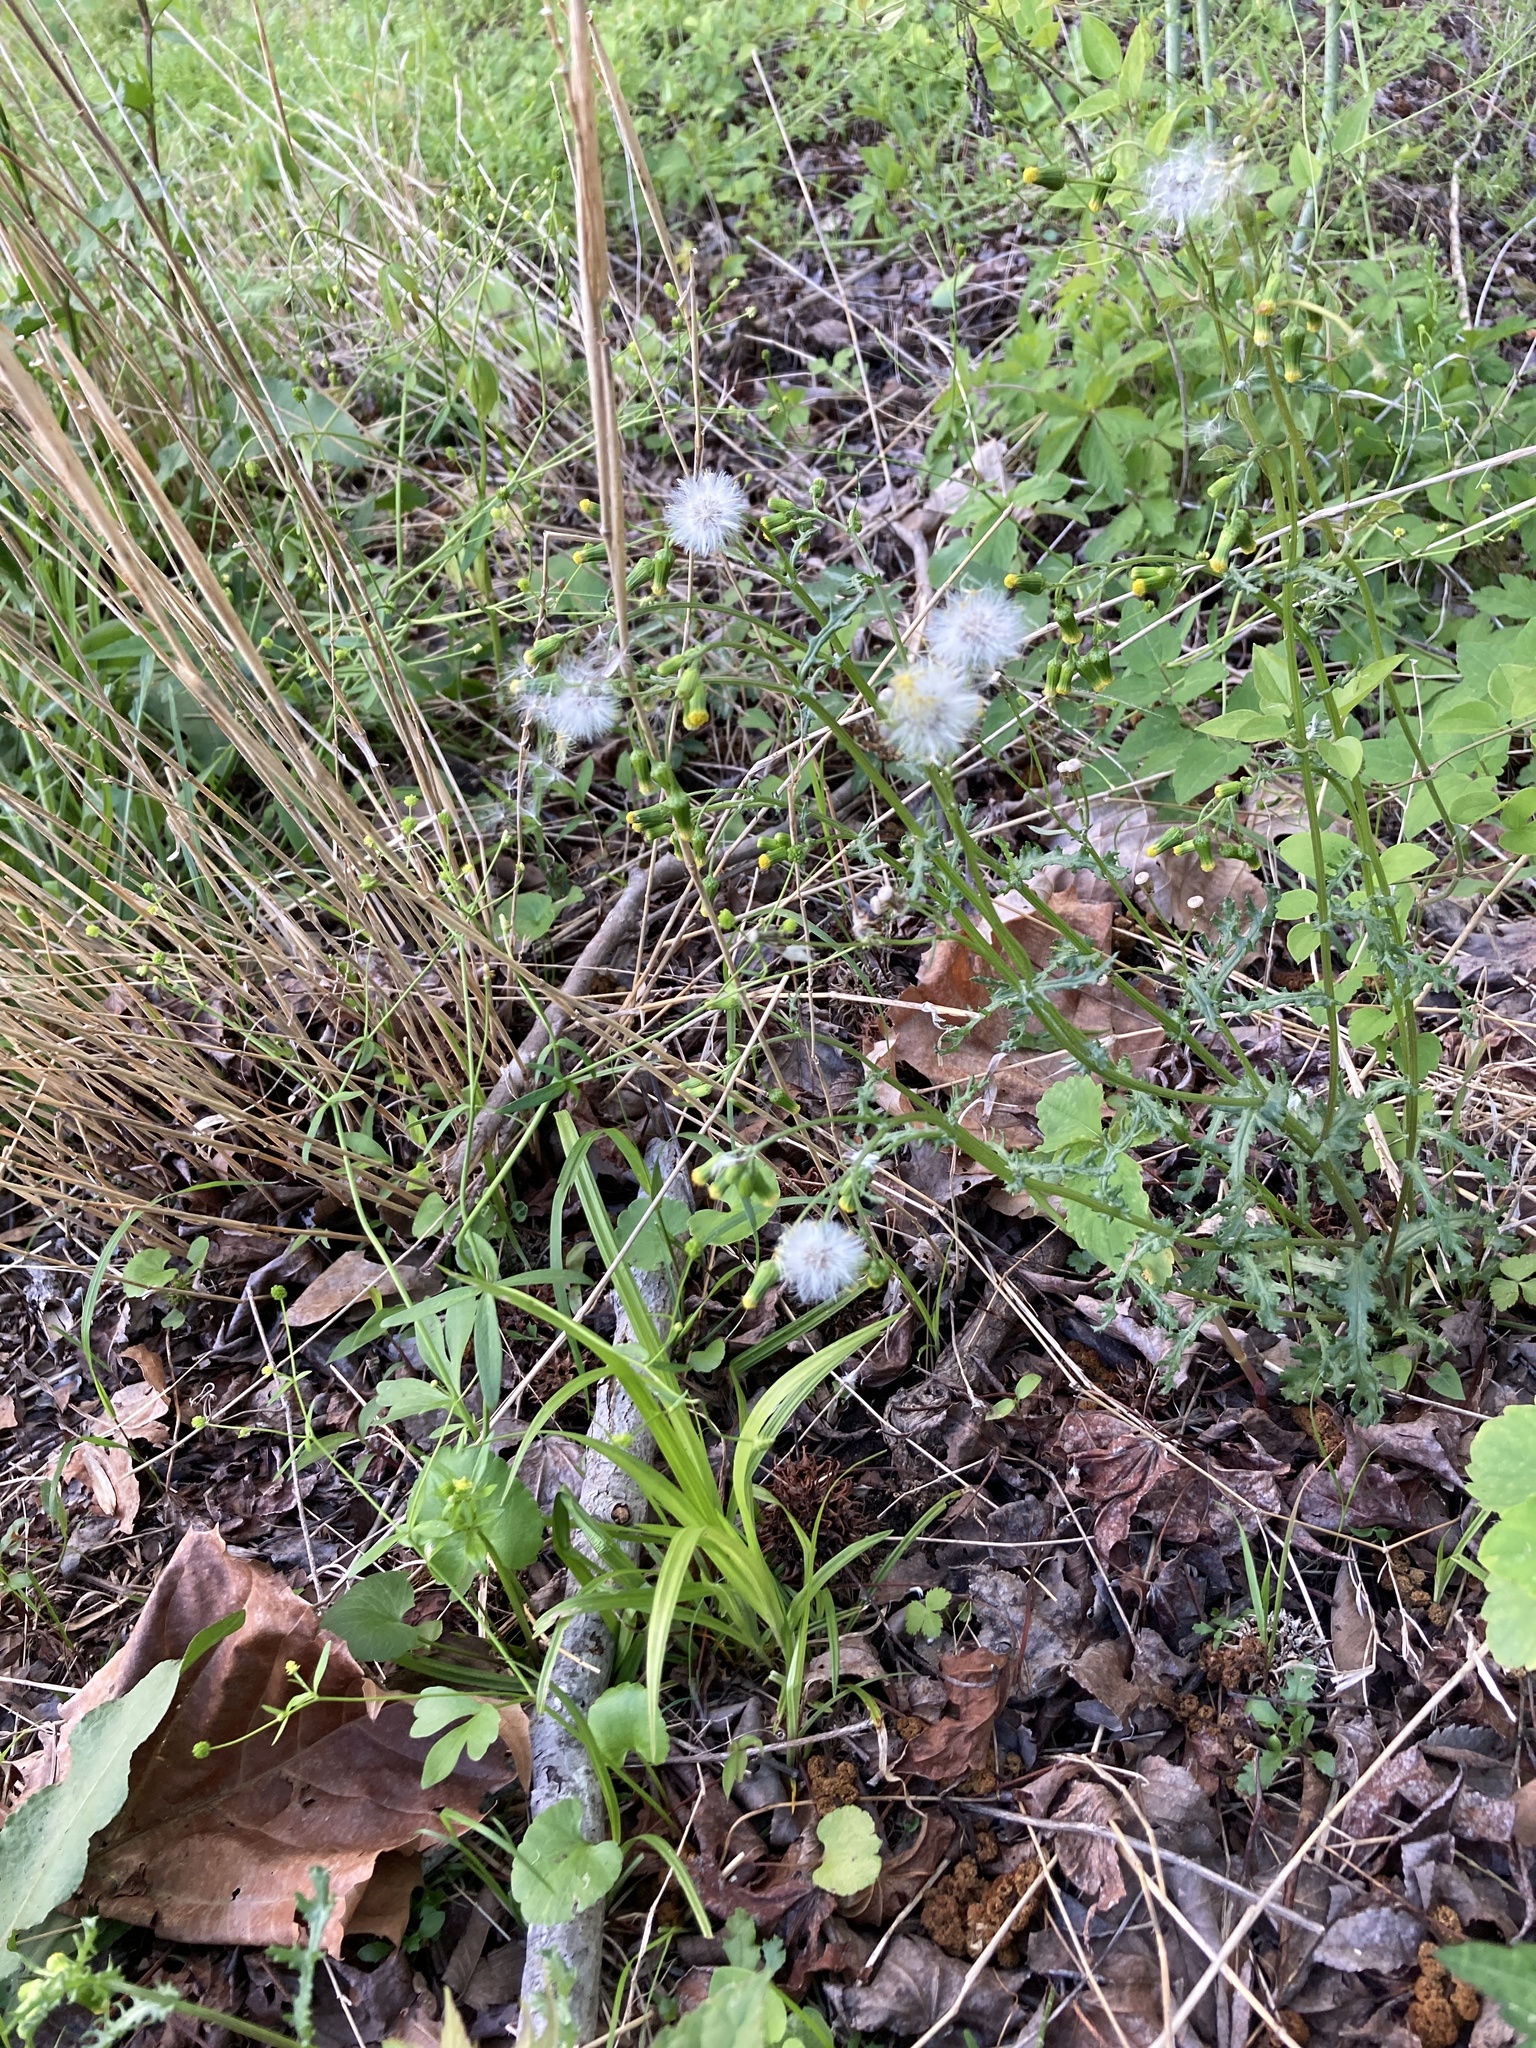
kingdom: Plantae
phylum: Tracheophyta
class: Magnoliopsida
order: Asterales
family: Asteraceae
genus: Senecio
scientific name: Senecio vulgaris
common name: Old-man-in-the-spring
